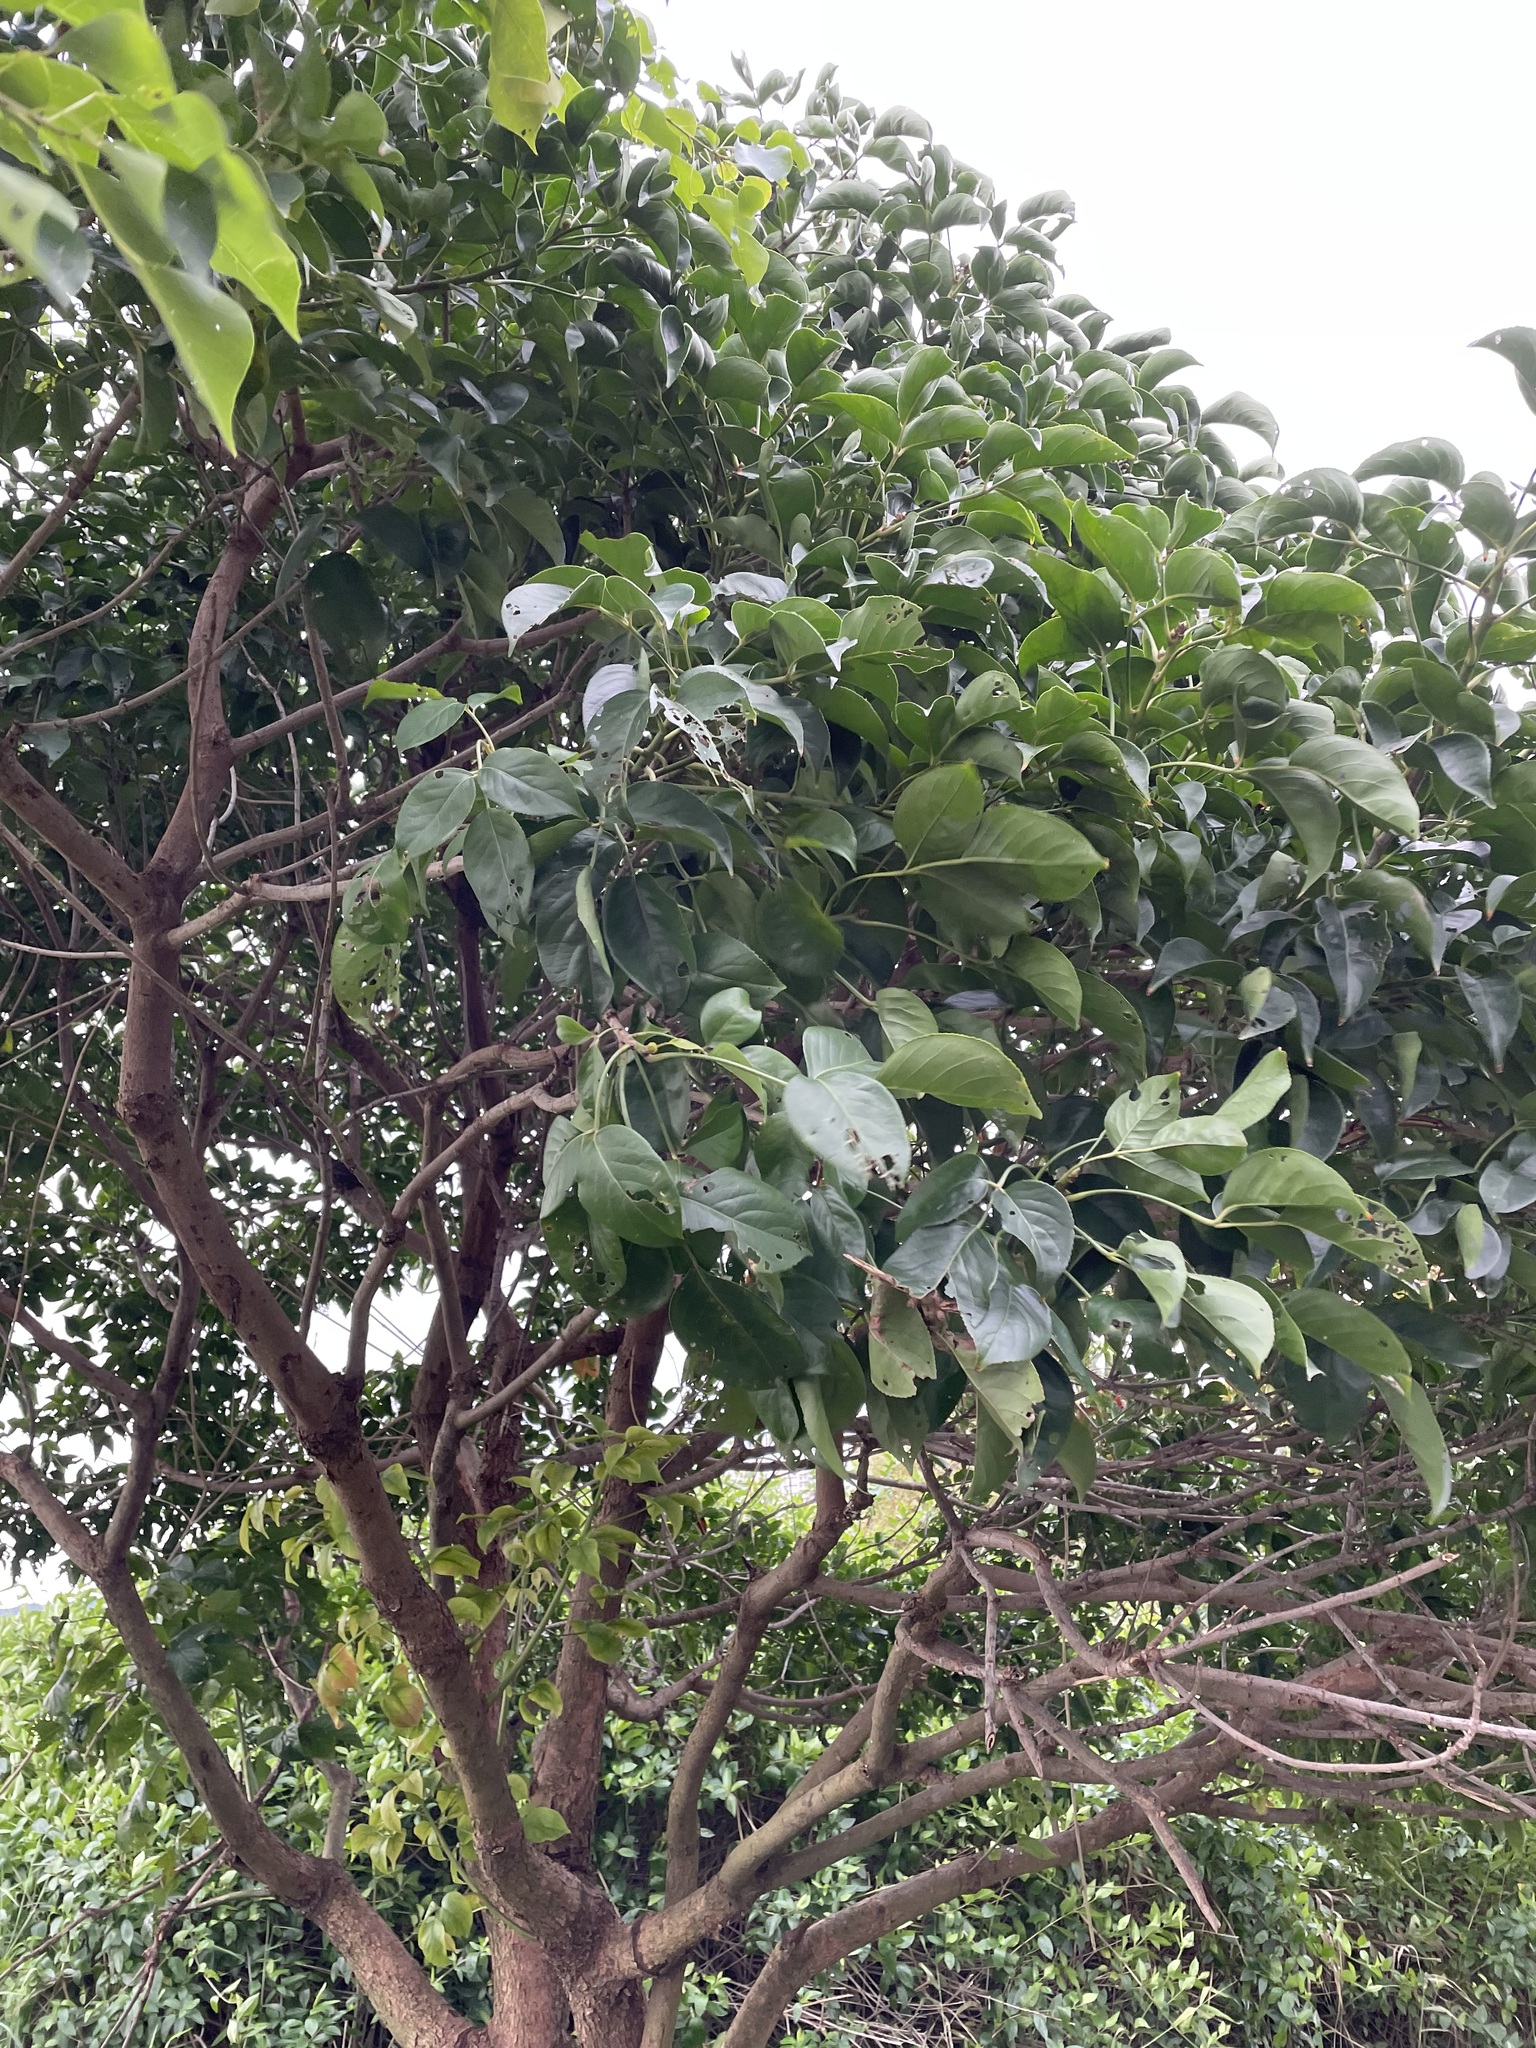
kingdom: Plantae
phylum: Tracheophyta
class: Magnoliopsida
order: Malpighiales
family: Phyllanthaceae
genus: Bischofia
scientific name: Bischofia javanica
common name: Javanese bishopwood
